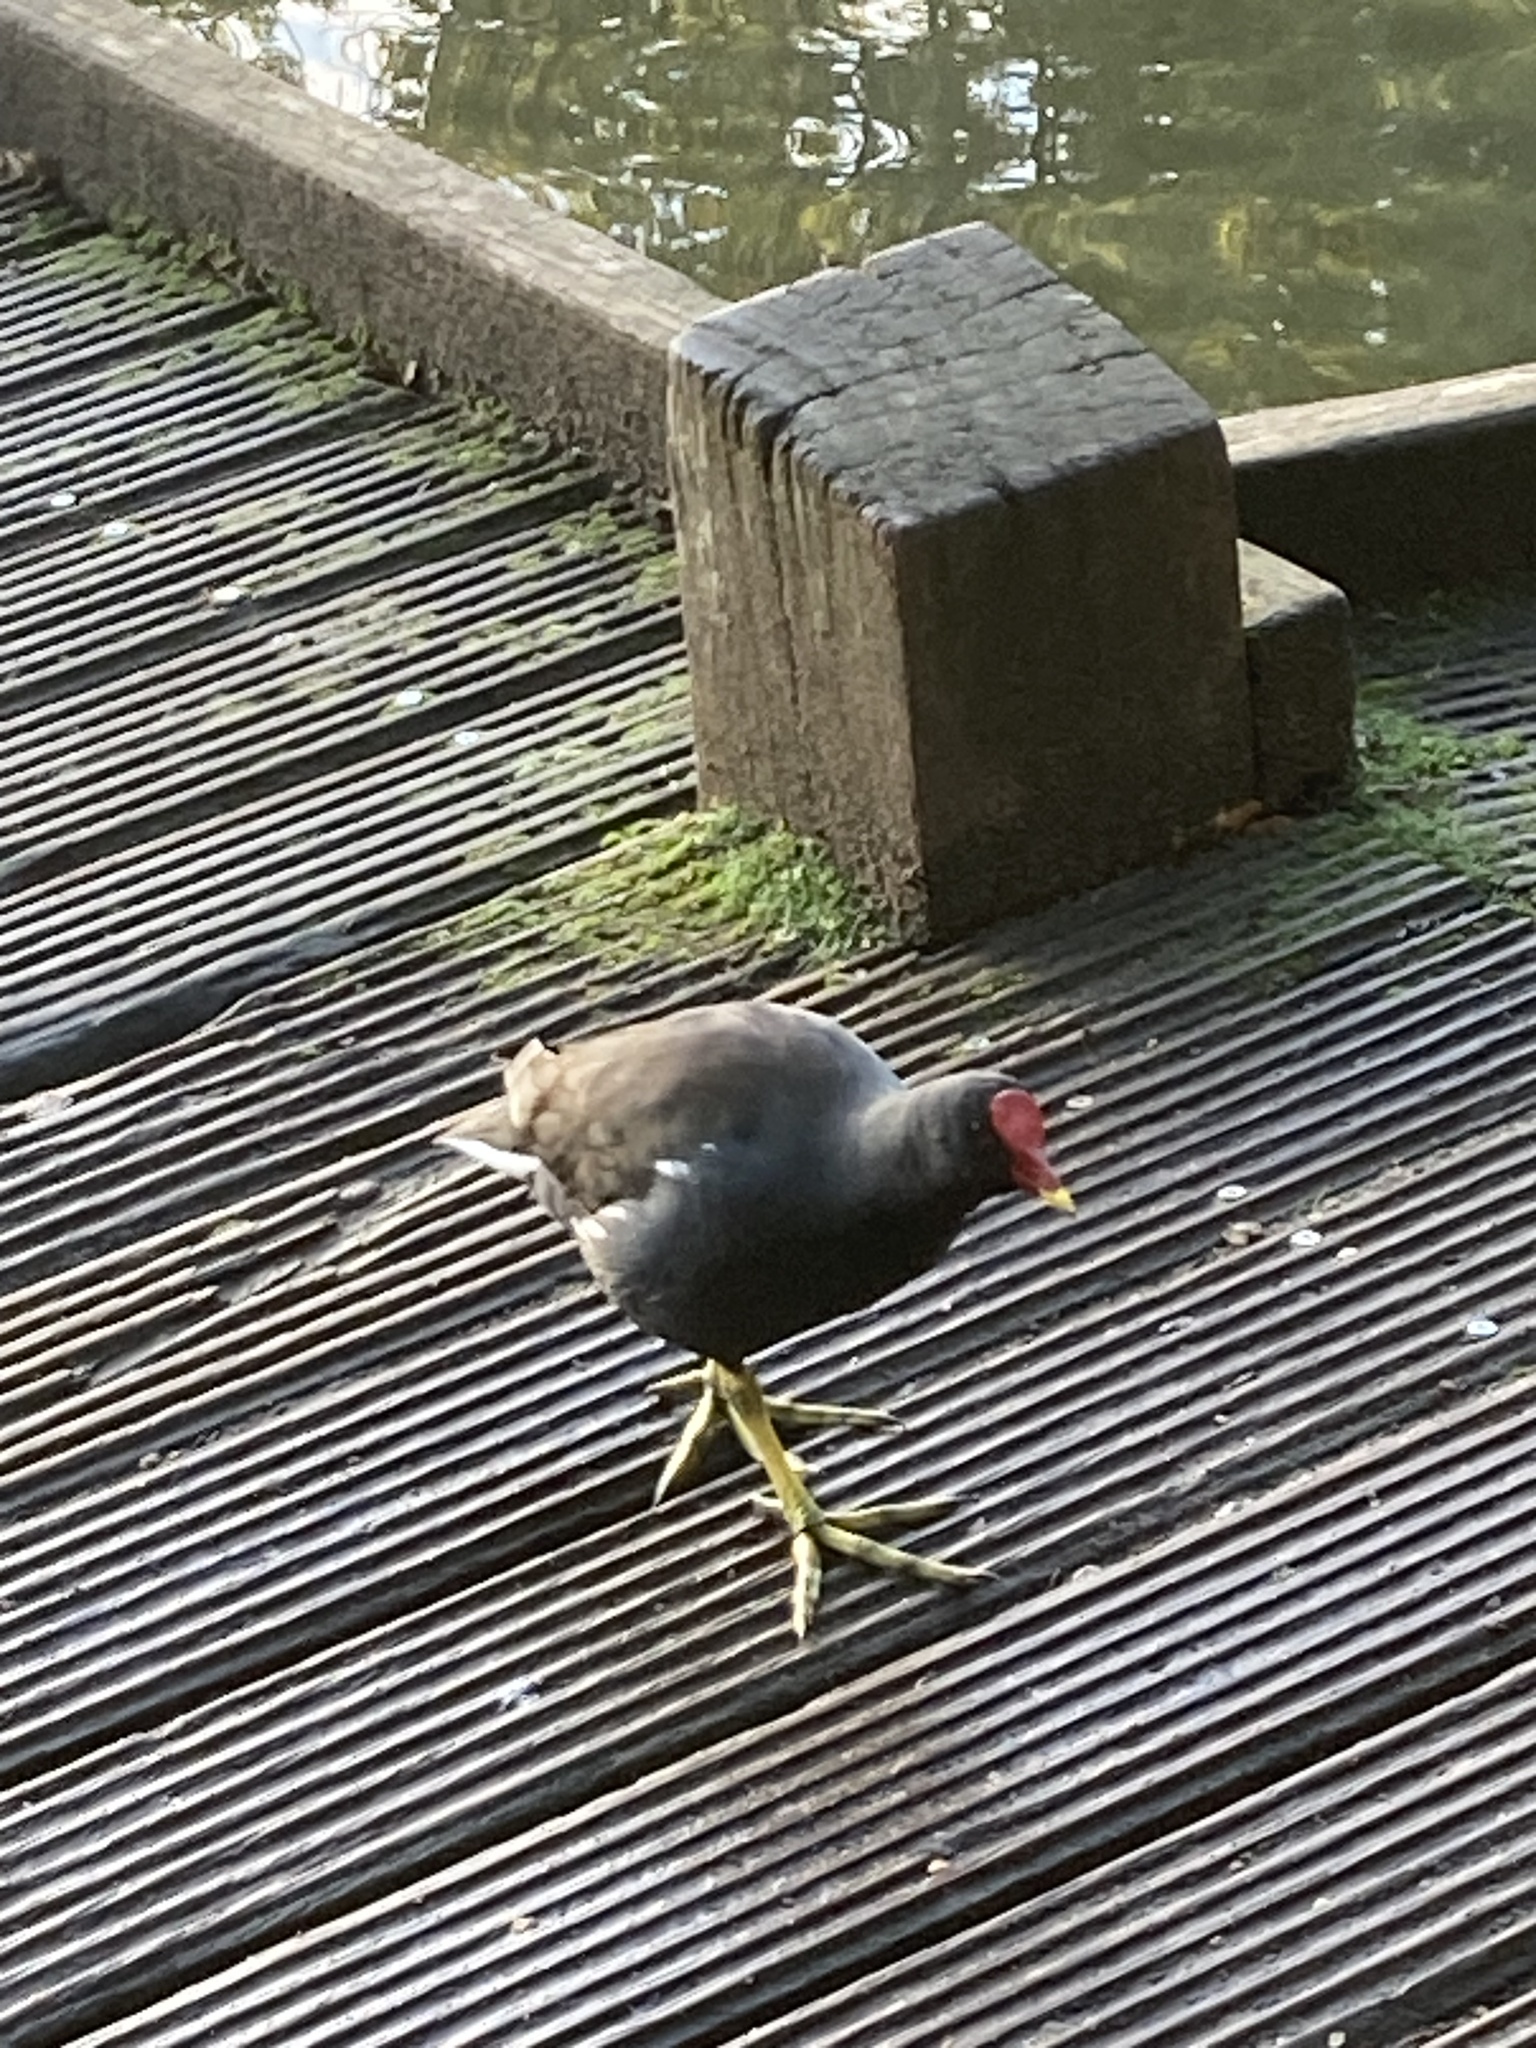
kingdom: Animalia
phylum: Chordata
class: Aves
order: Gruiformes
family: Rallidae
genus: Gallinula
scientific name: Gallinula chloropus
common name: Common moorhen
